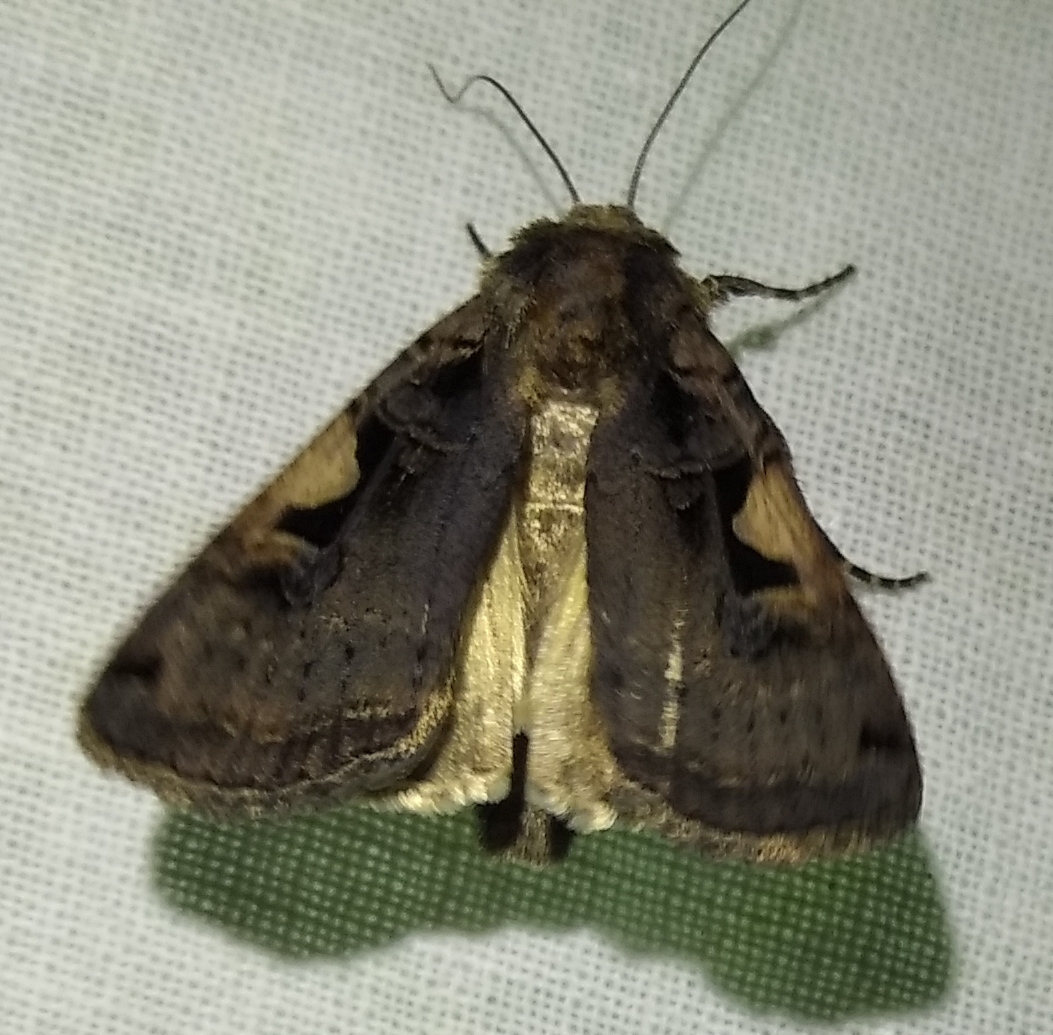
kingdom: Animalia
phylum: Arthropoda
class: Insecta
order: Lepidoptera
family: Noctuidae
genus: Xestia
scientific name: Xestia c-nigrum
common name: Setaceous hebrew character
